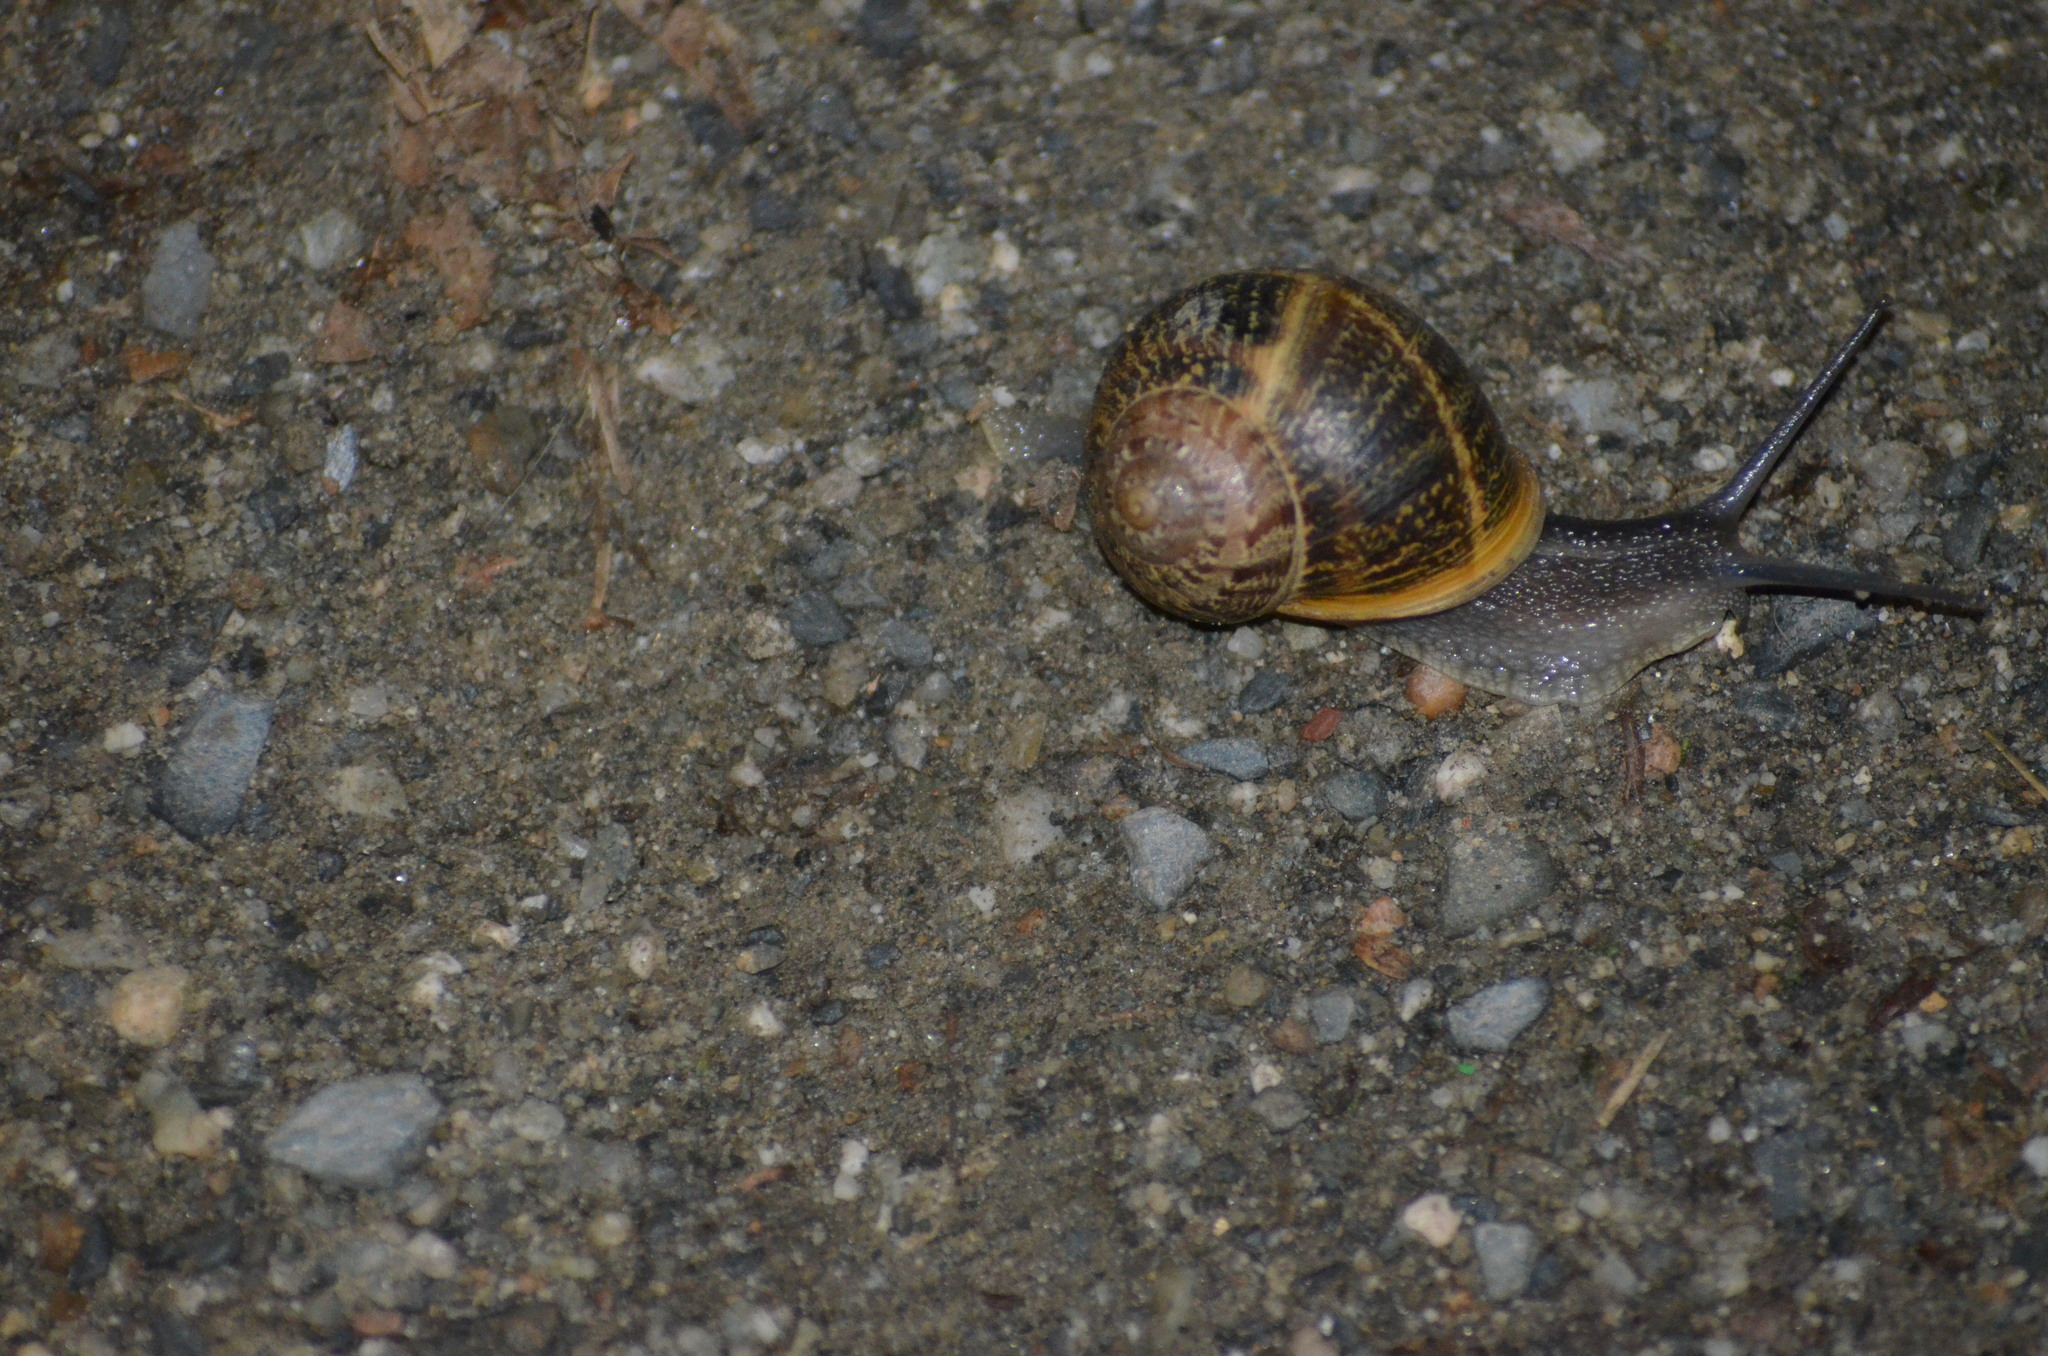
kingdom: Animalia
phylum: Mollusca
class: Gastropoda
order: Stylommatophora
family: Helicidae
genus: Cornu
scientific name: Cornu aspersum
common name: Brown garden snail
